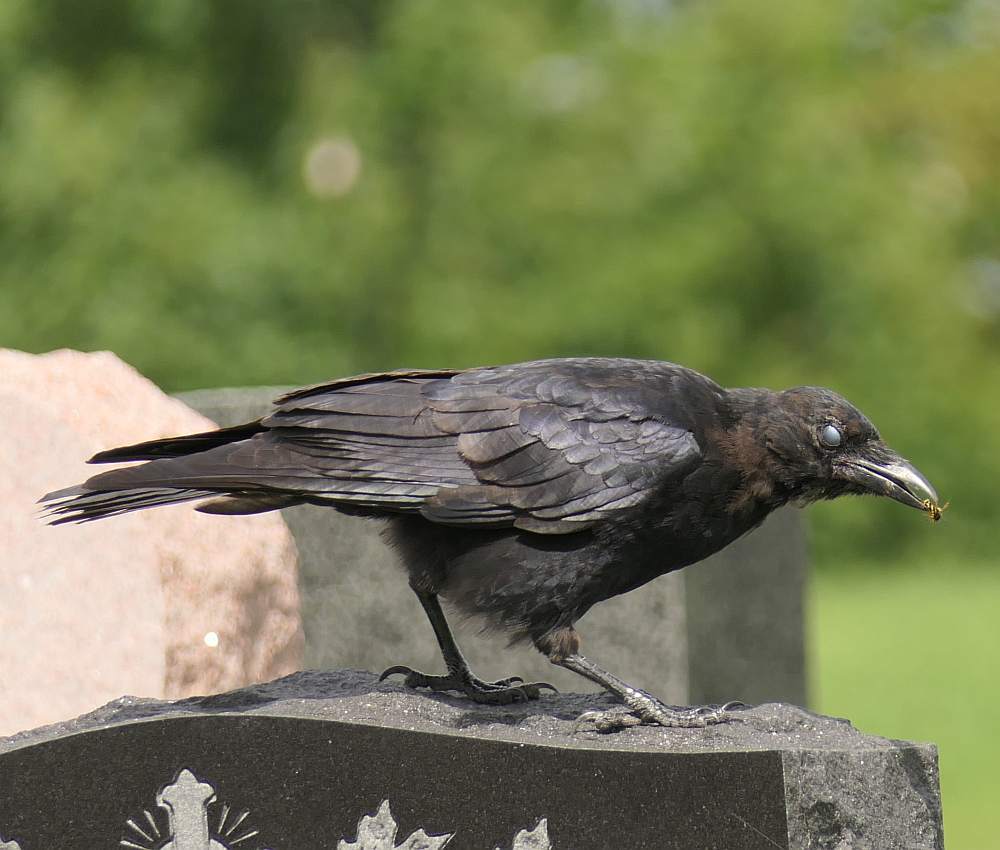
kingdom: Animalia
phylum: Chordata
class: Aves
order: Passeriformes
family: Corvidae
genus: Corvus
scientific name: Corvus brachyrhynchos
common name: American crow
